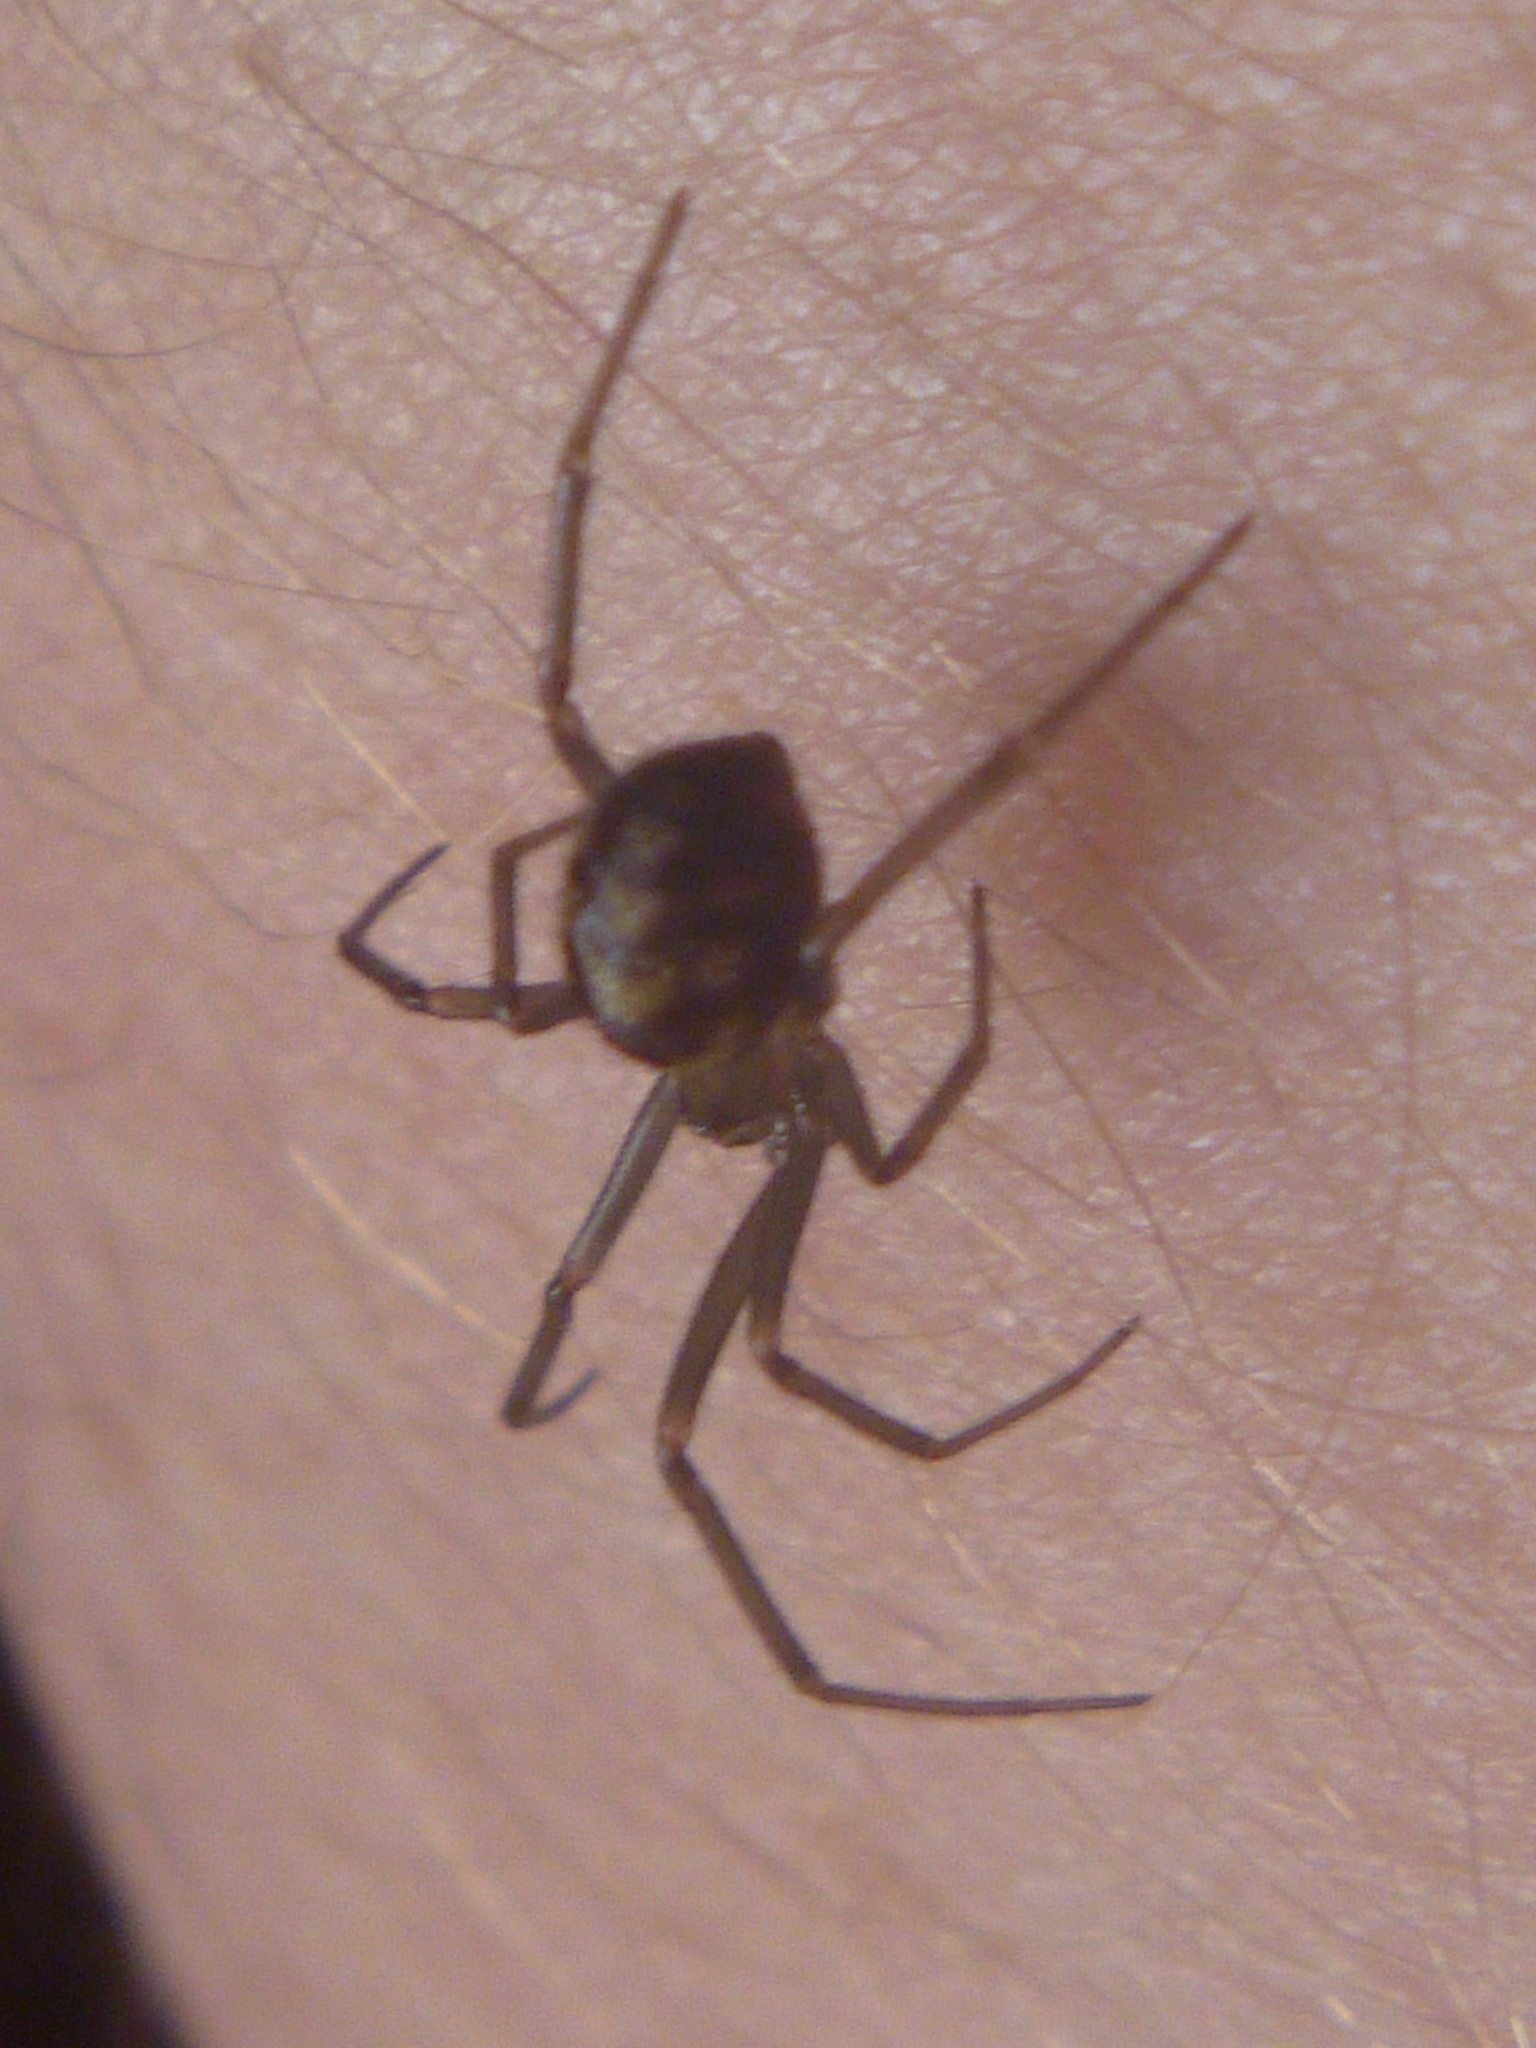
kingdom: Animalia
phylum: Arthropoda
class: Arachnida
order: Araneae
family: Theridiidae
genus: Steatoda
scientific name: Steatoda grossa
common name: False black widow
